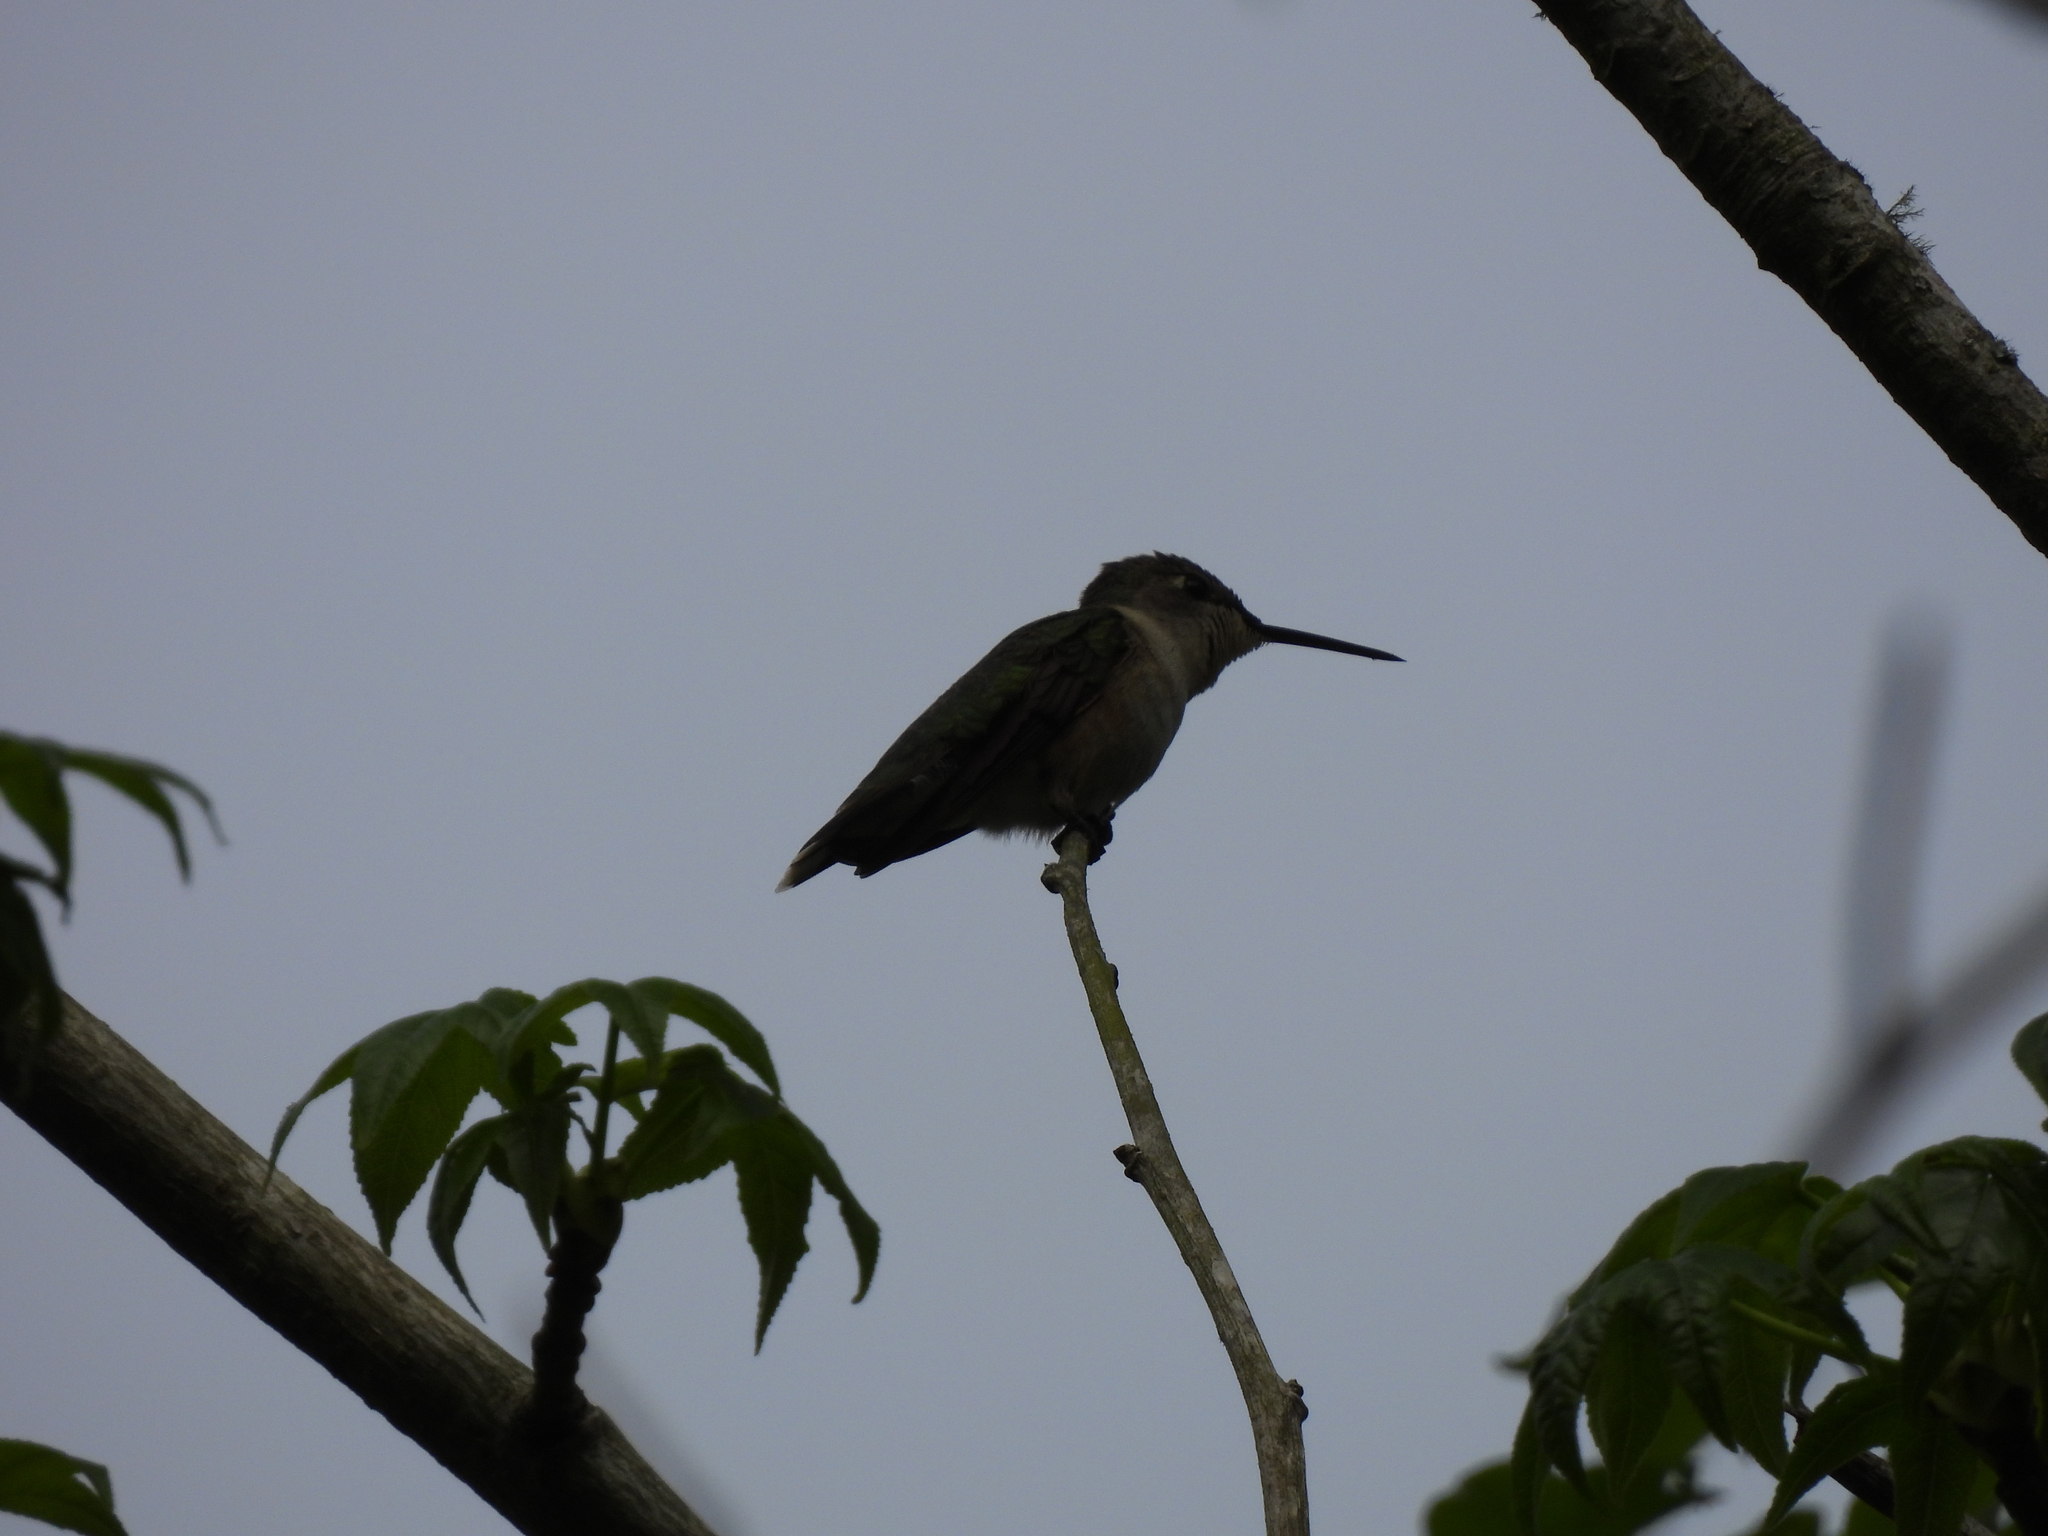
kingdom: Animalia
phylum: Chordata
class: Aves
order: Apodiformes
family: Trochilidae
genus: Archilochus
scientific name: Archilochus colubris
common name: Ruby-throated hummingbird
